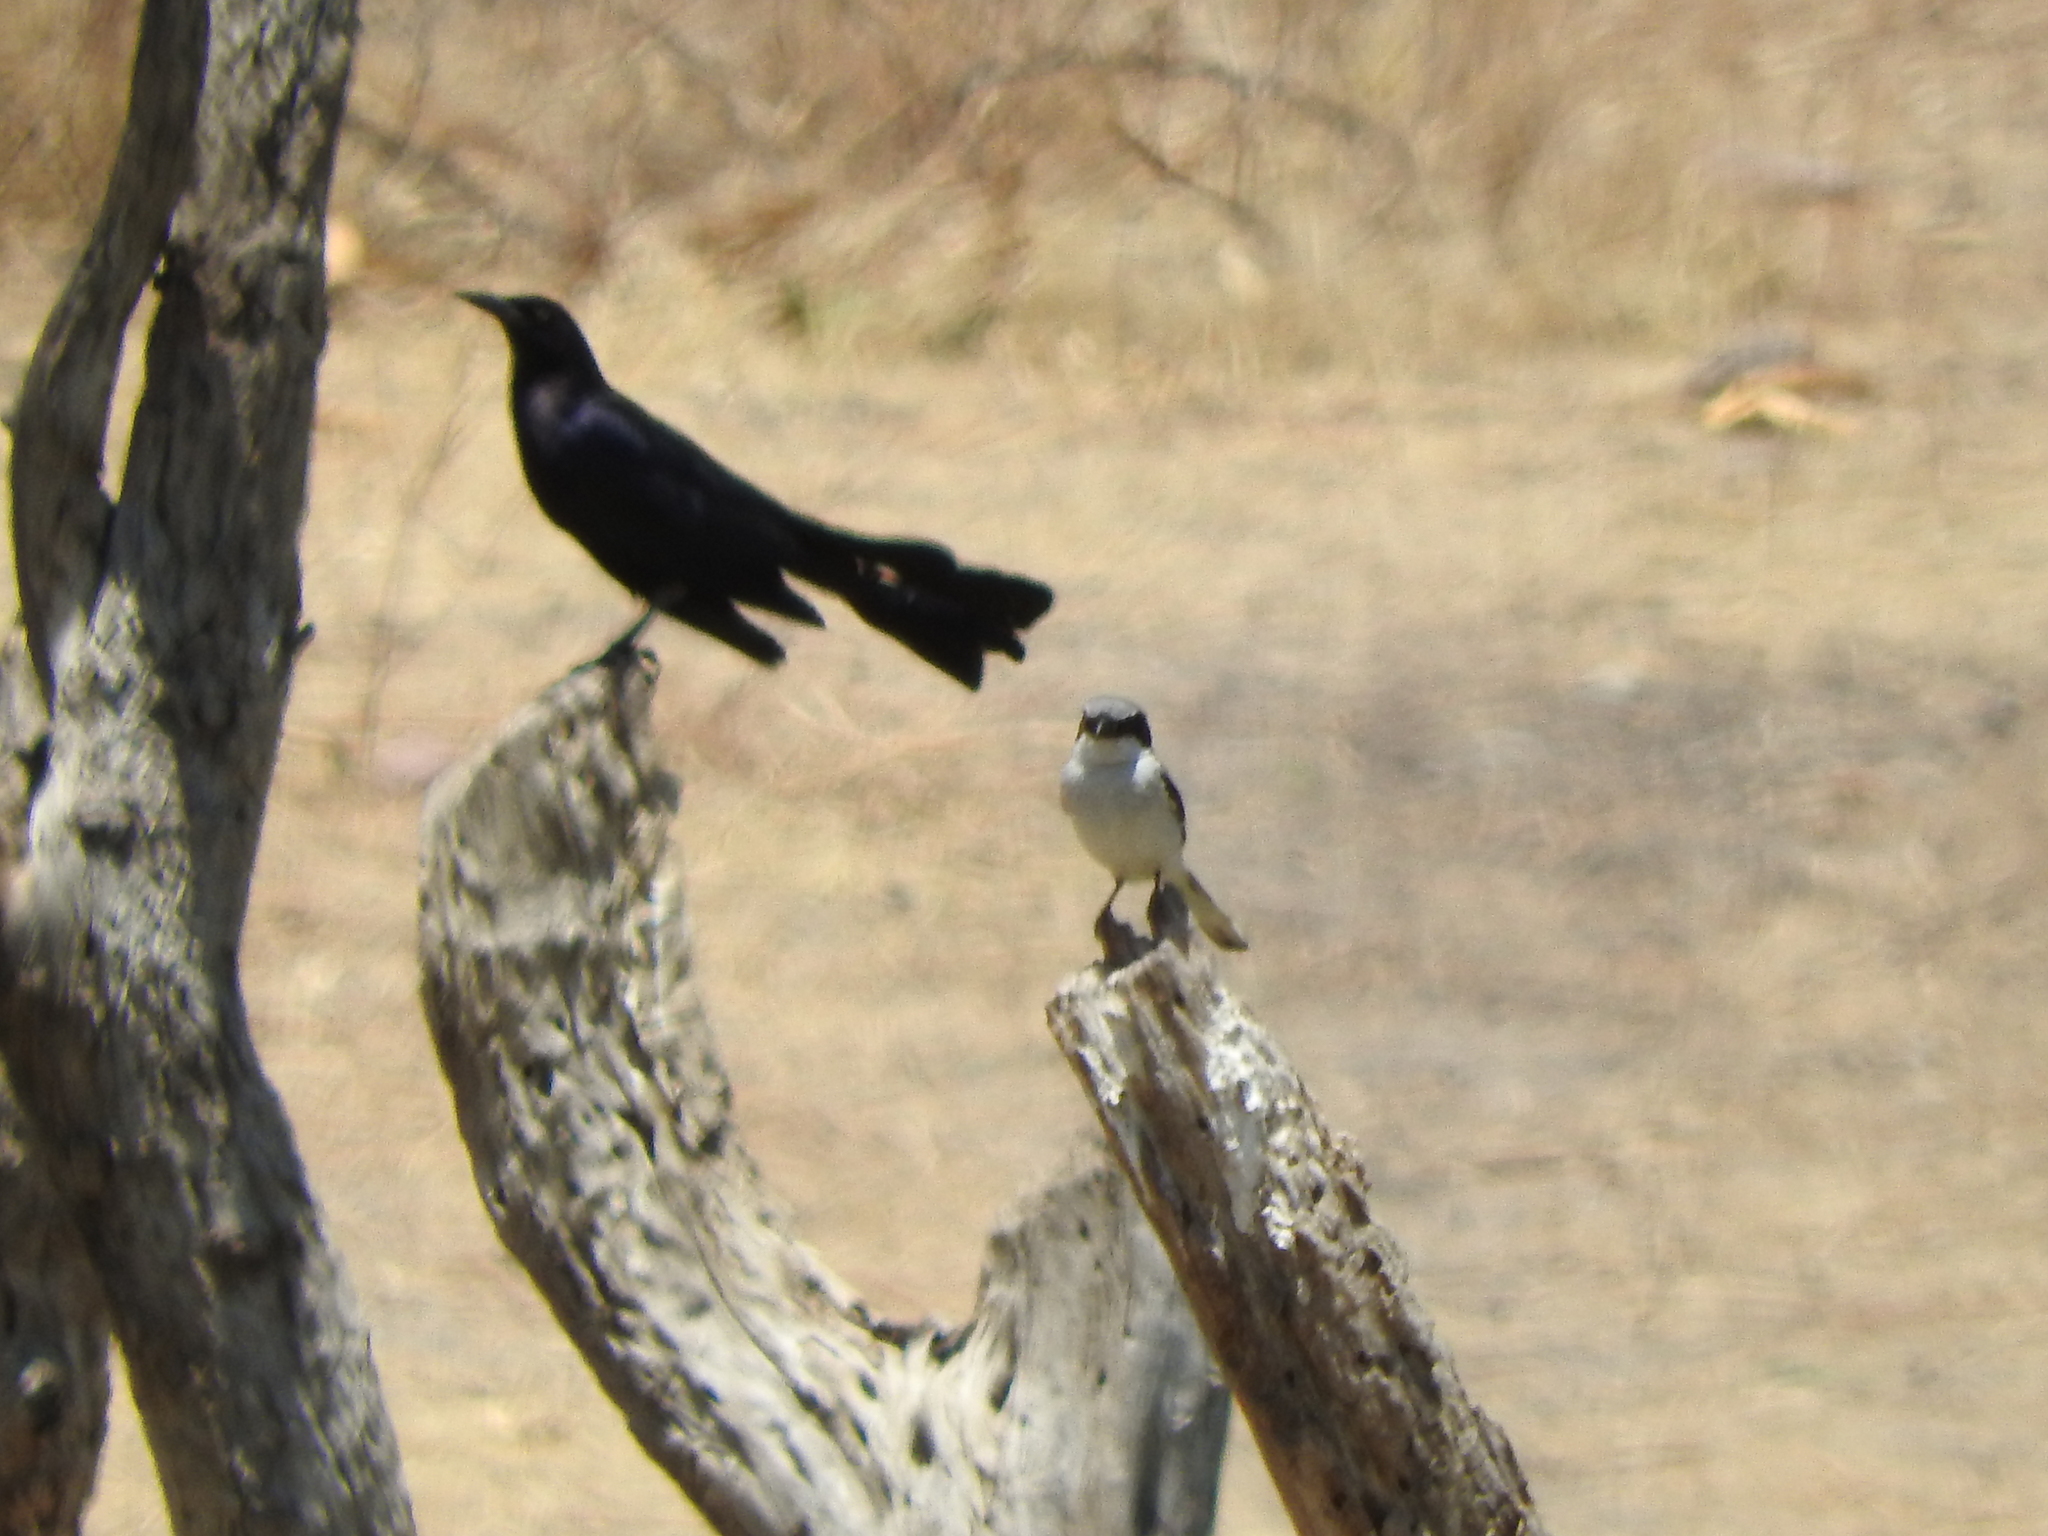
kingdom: Animalia
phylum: Chordata
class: Aves
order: Passeriformes
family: Laniidae
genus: Lanius
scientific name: Lanius ludovicianus
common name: Loggerhead shrike
